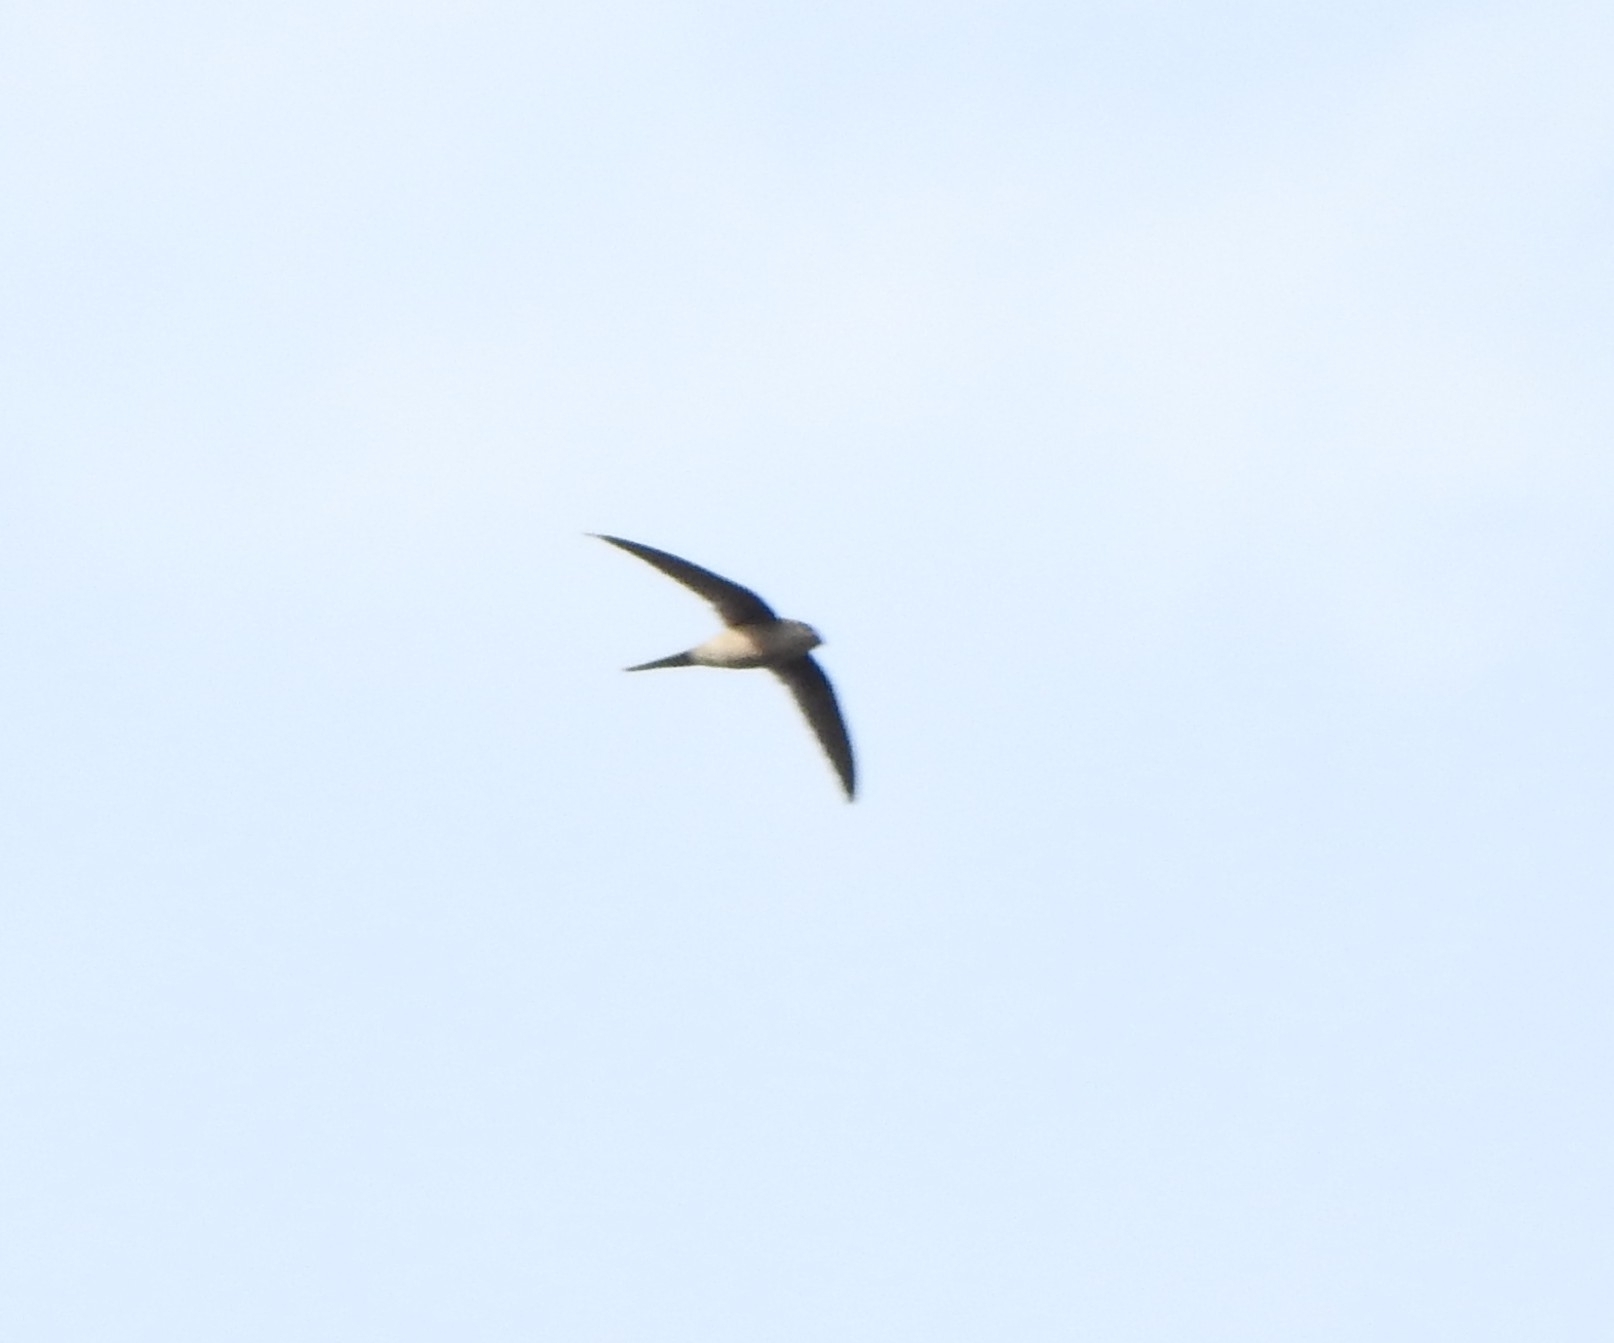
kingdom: Animalia
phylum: Chordata
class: Aves
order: Apodiformes
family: Apodidae
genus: Cypsiurus
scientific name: Cypsiurus balasiensis
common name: Asian palm swift
